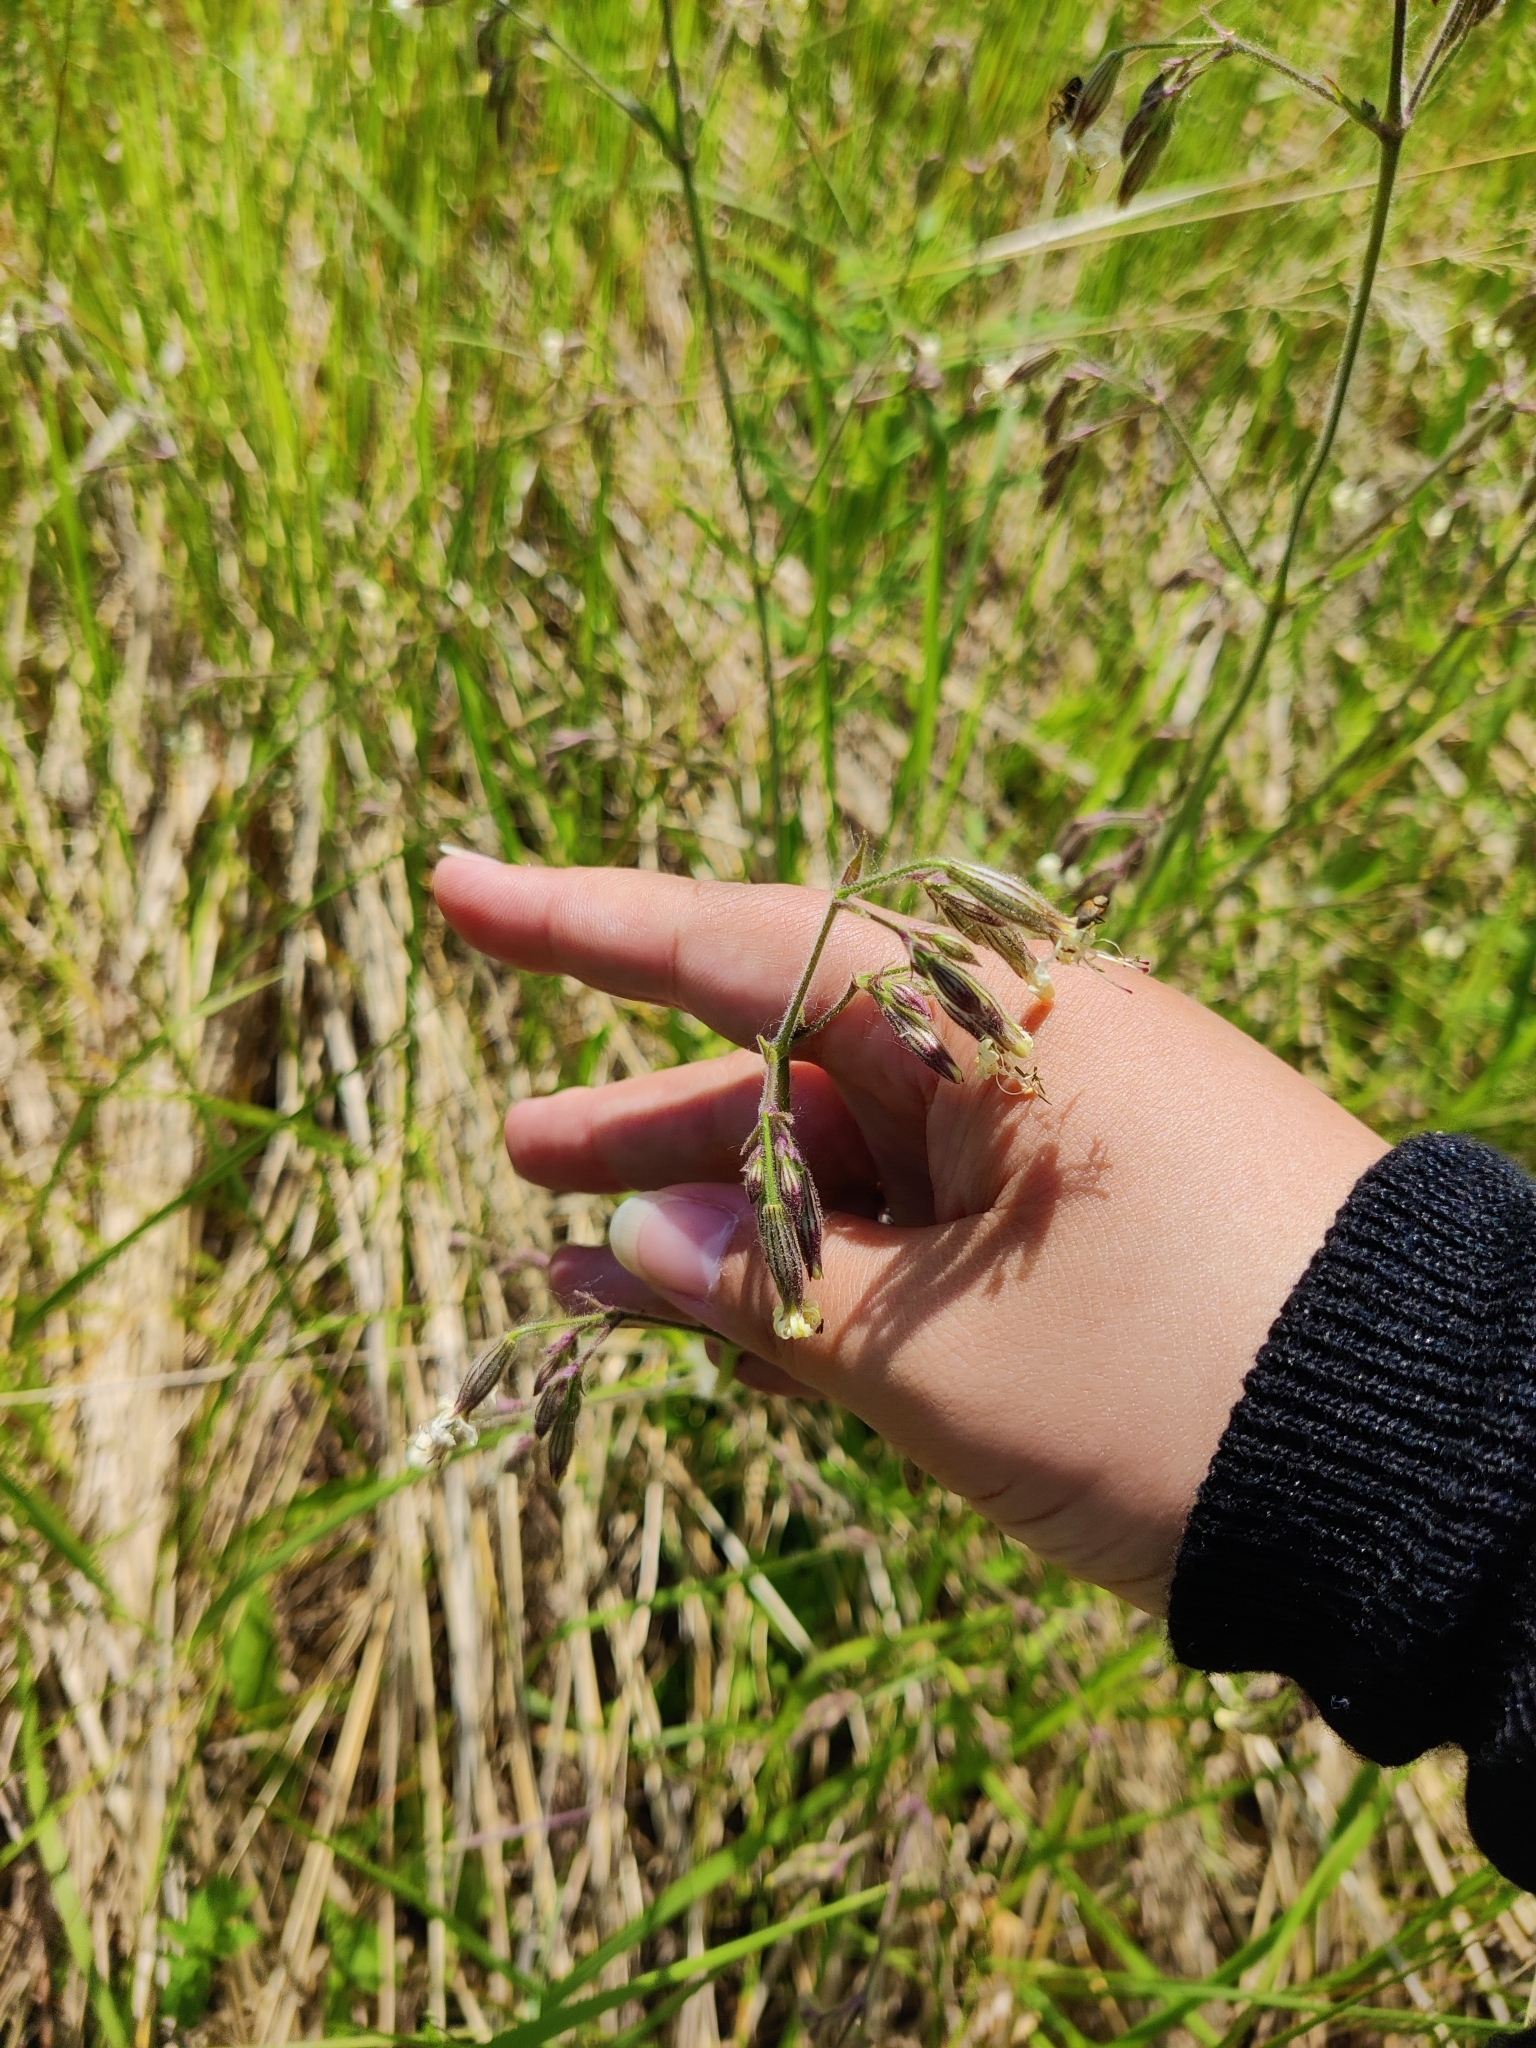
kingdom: Plantae
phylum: Tracheophyta
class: Magnoliopsida
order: Caryophyllales
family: Caryophyllaceae
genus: Silene
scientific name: Silene nutans
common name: Nottingham catchfly
